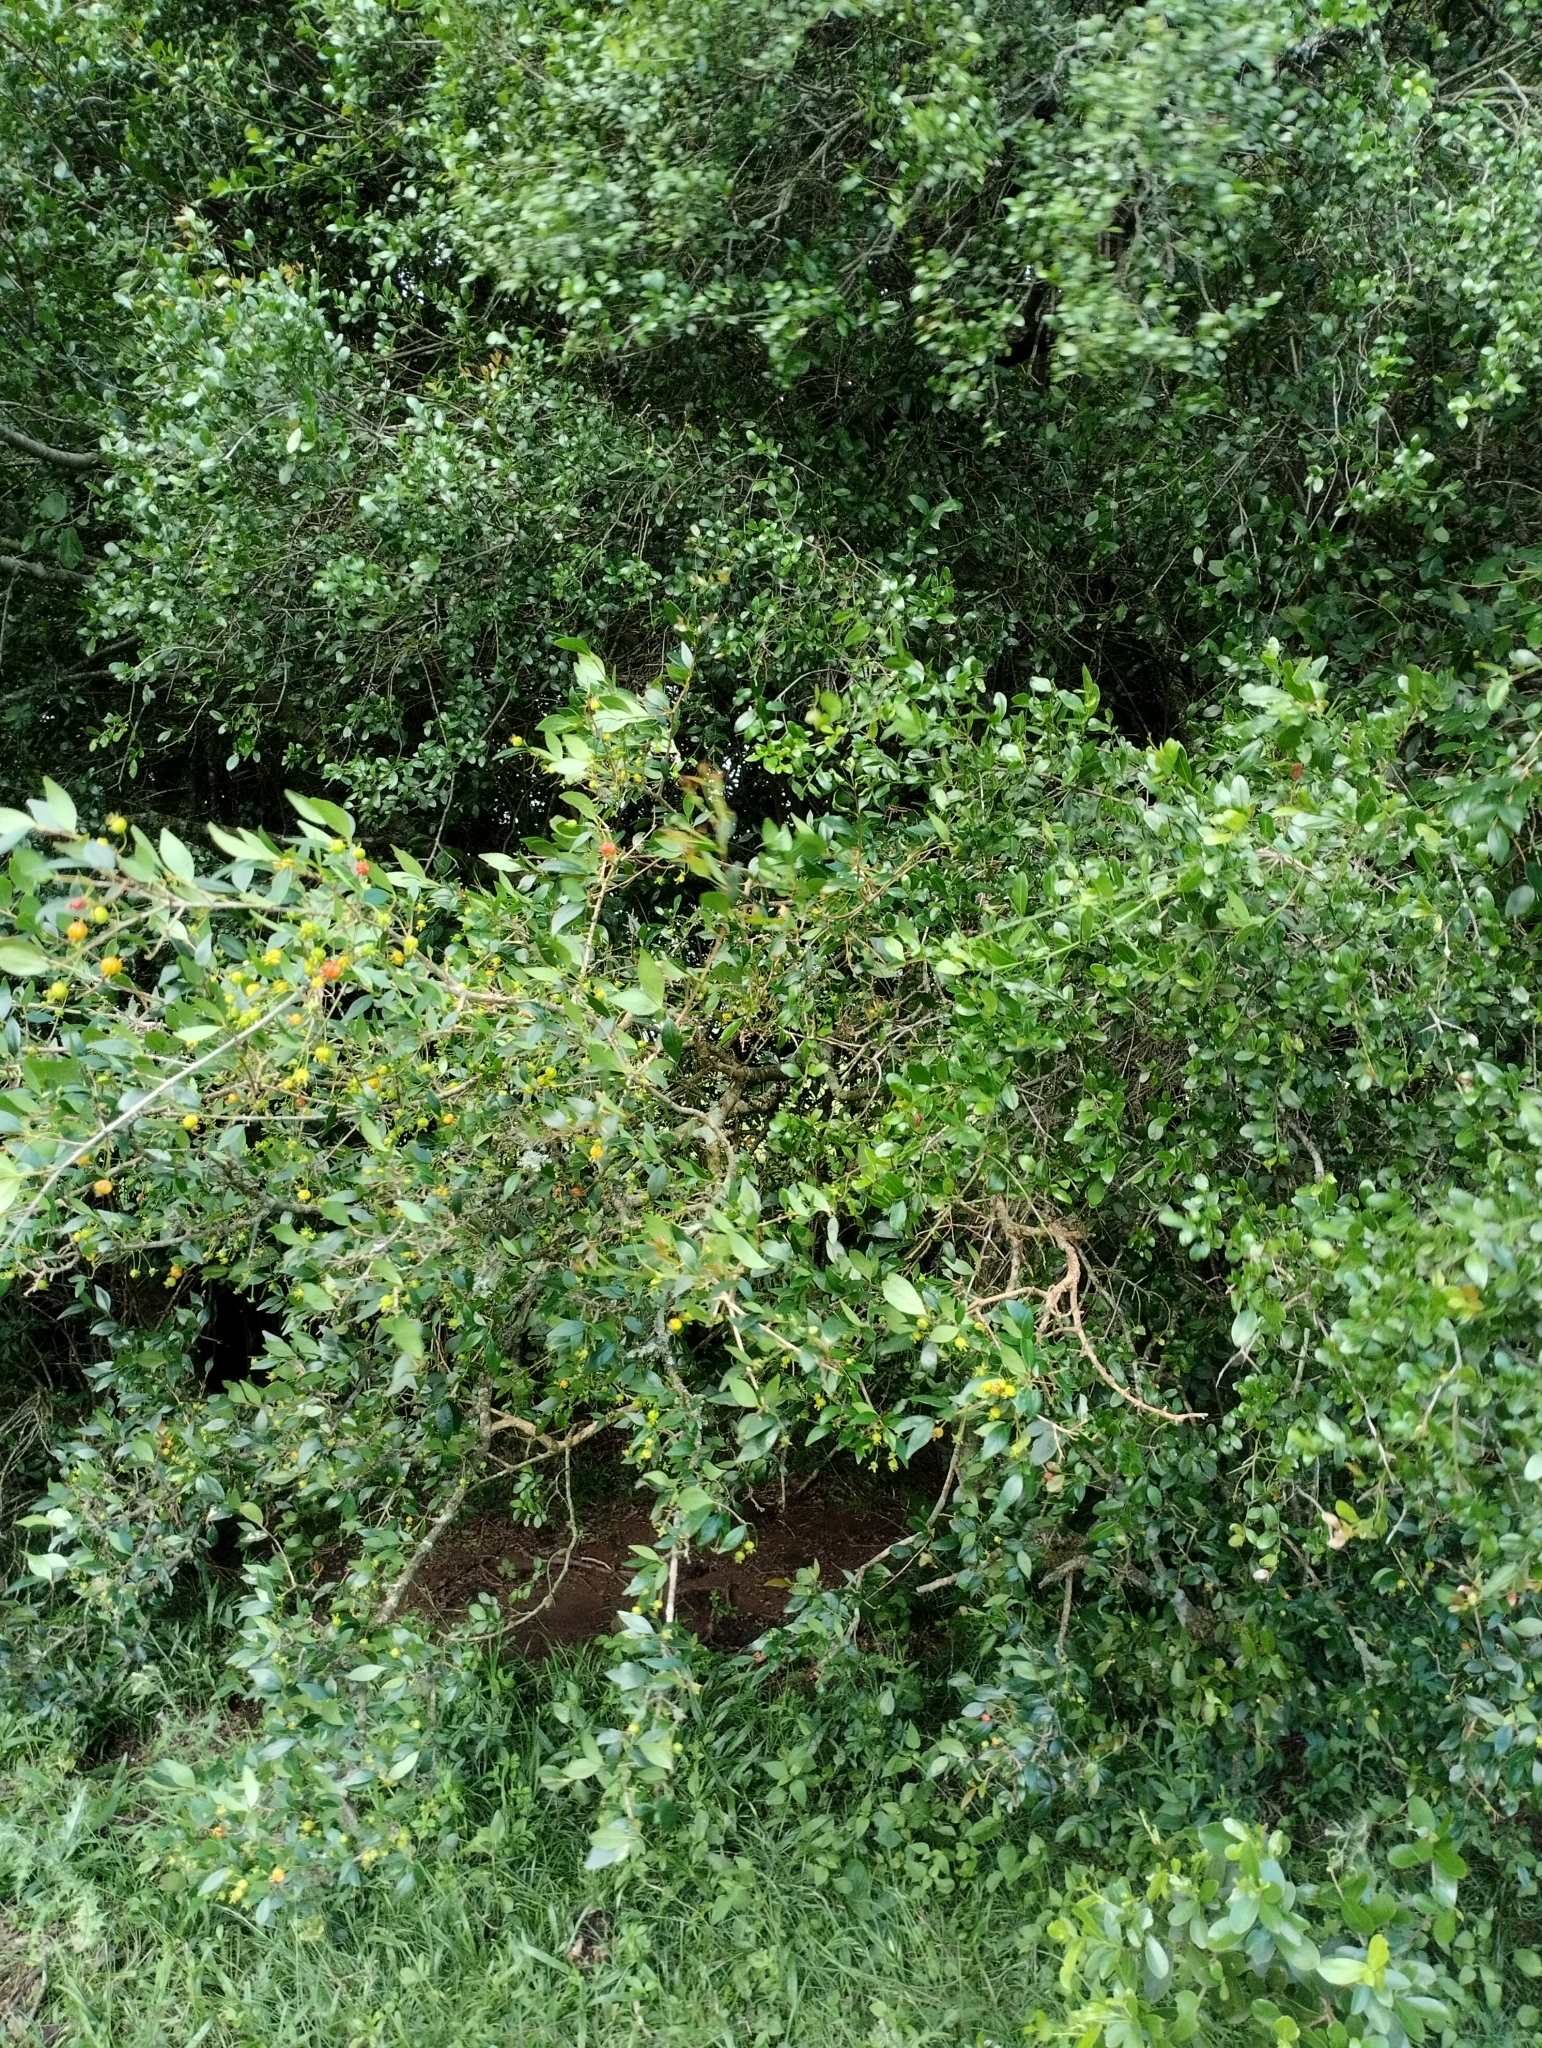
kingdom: Plantae
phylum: Tracheophyta
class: Magnoliopsida
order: Myrtales
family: Myrtaceae
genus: Eugenia
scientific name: Eugenia uniflora
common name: Surinam cherry
